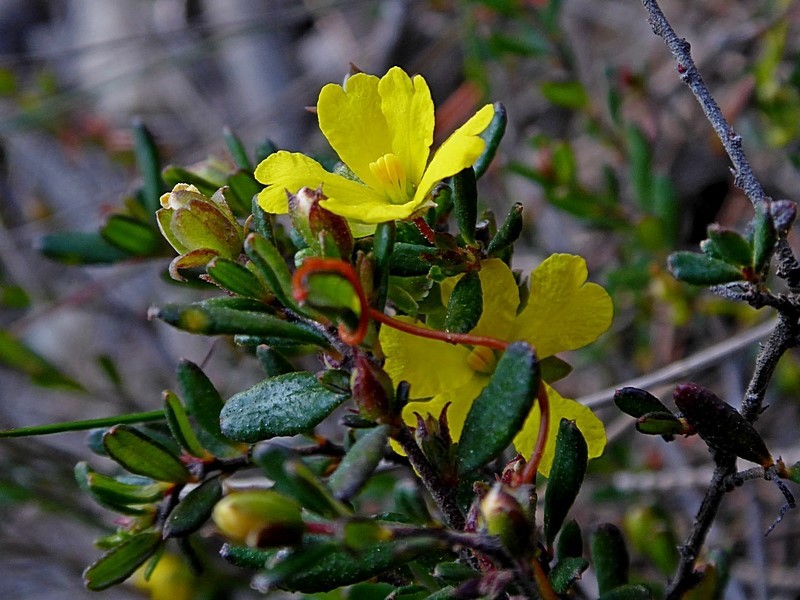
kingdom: Plantae
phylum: Tracheophyta
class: Magnoliopsida
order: Dilleniales
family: Dilleniaceae
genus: Hibbertia
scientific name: Hibbertia empetrifolia
